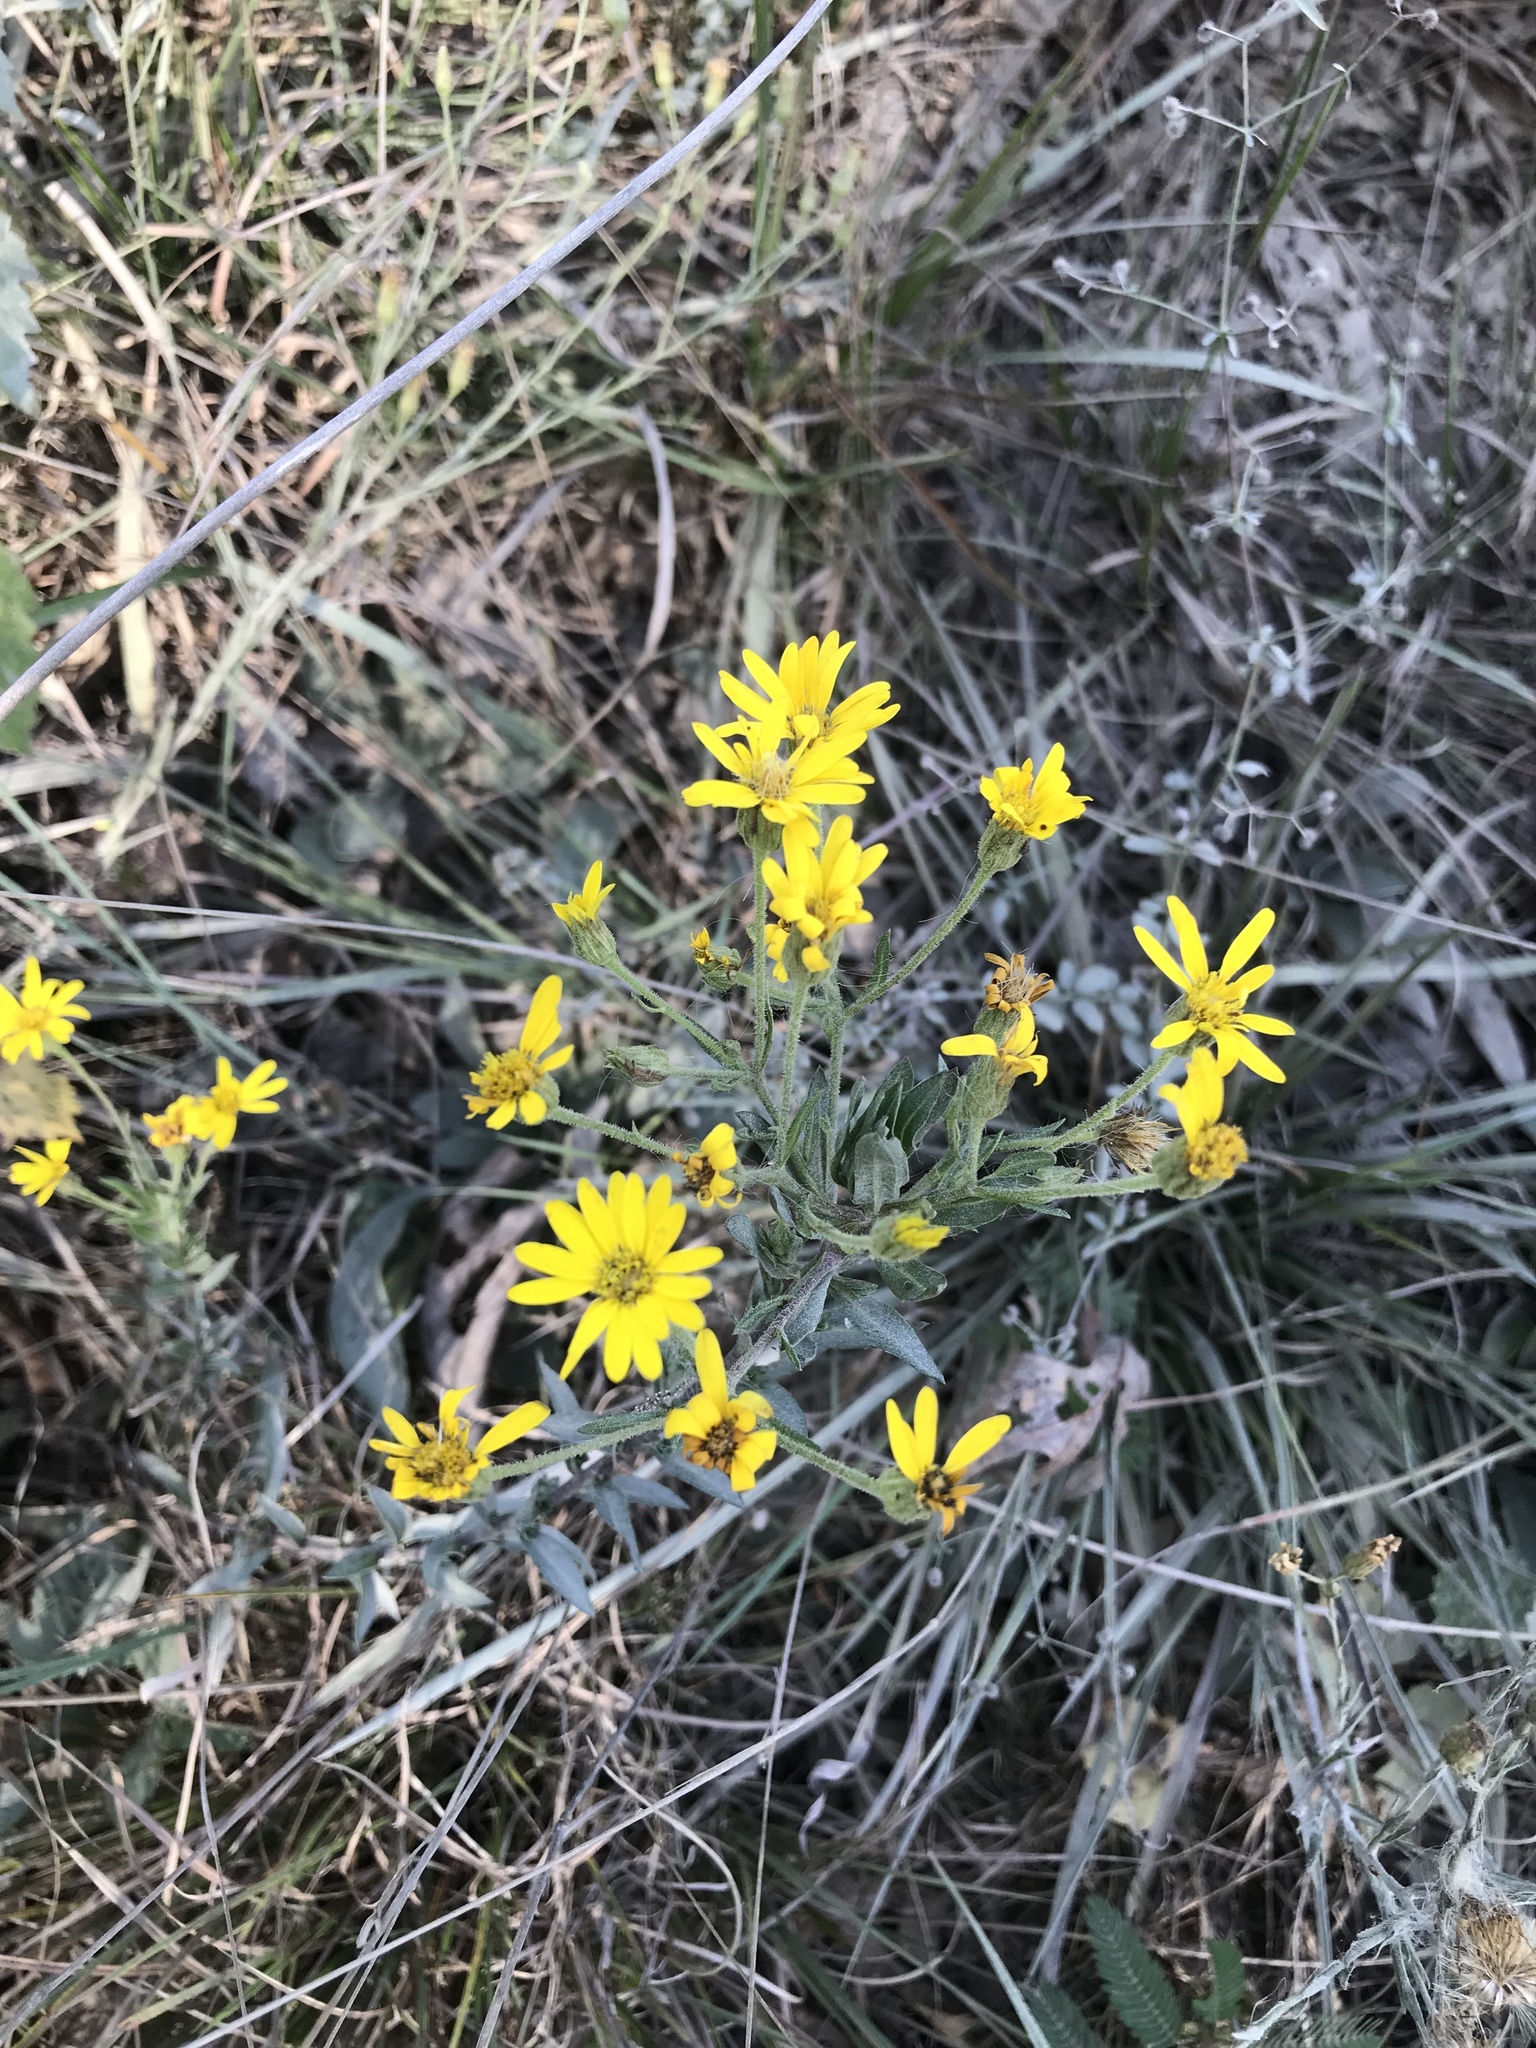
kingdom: Plantae
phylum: Tracheophyta
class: Magnoliopsida
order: Asterales
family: Asteraceae
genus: Chrysopsis
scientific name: Chrysopsis mariana
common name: Maryland golden-aster
